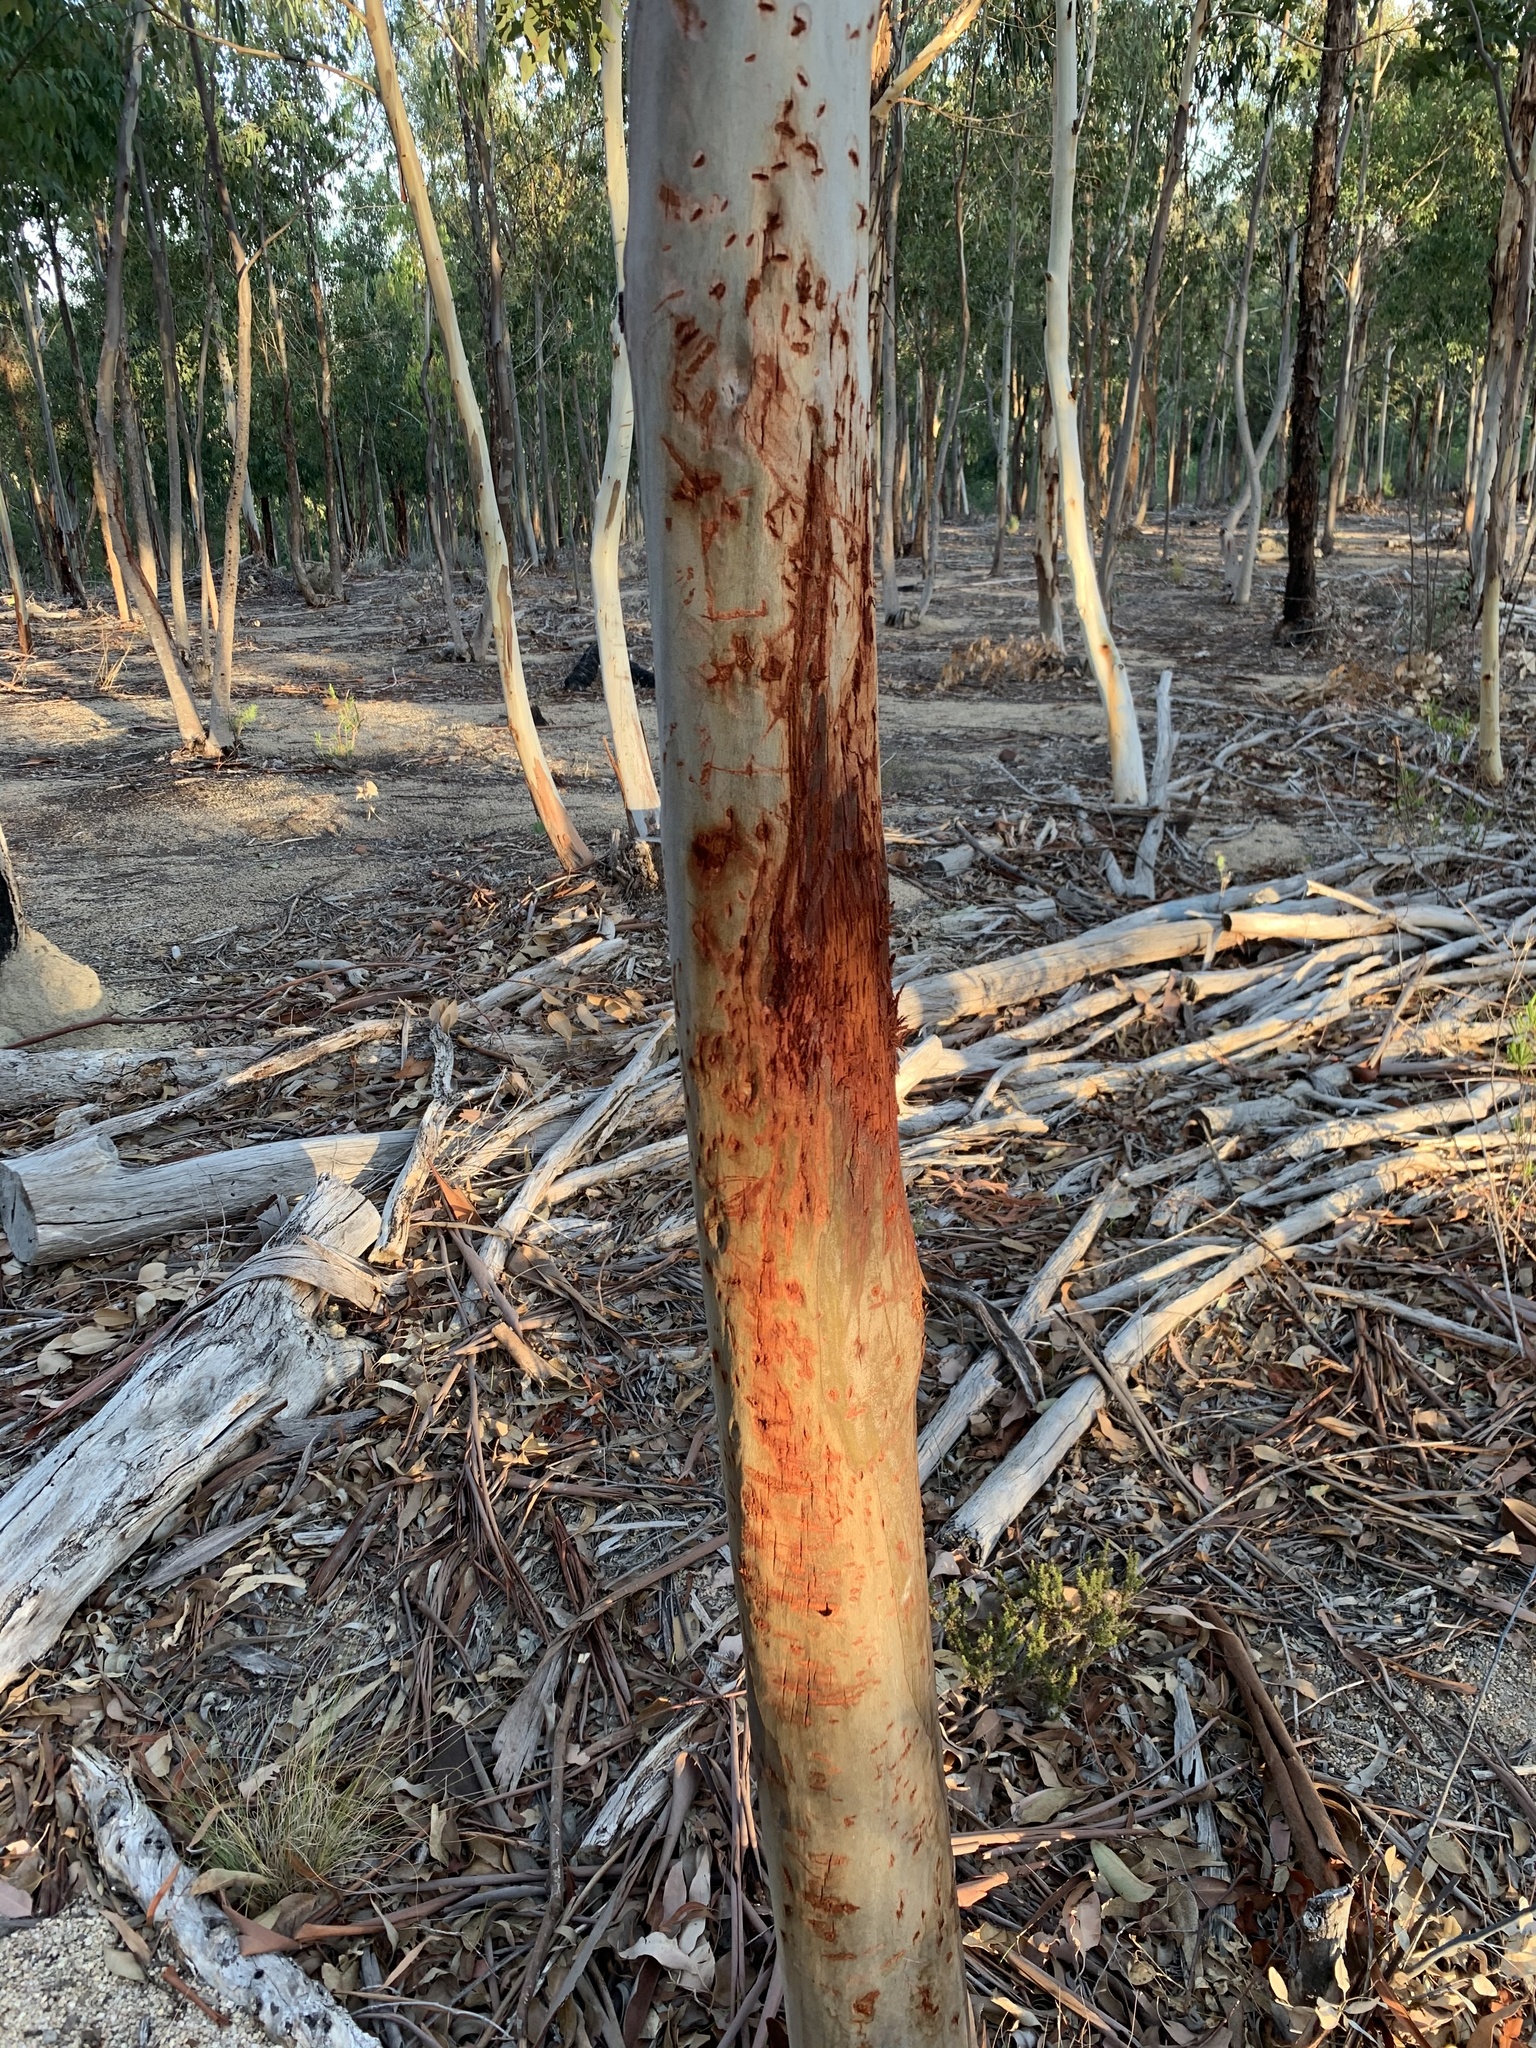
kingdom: Animalia
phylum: Chordata
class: Mammalia
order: Carnivora
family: Felidae
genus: Panthera
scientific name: Panthera pardus
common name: Leopard
